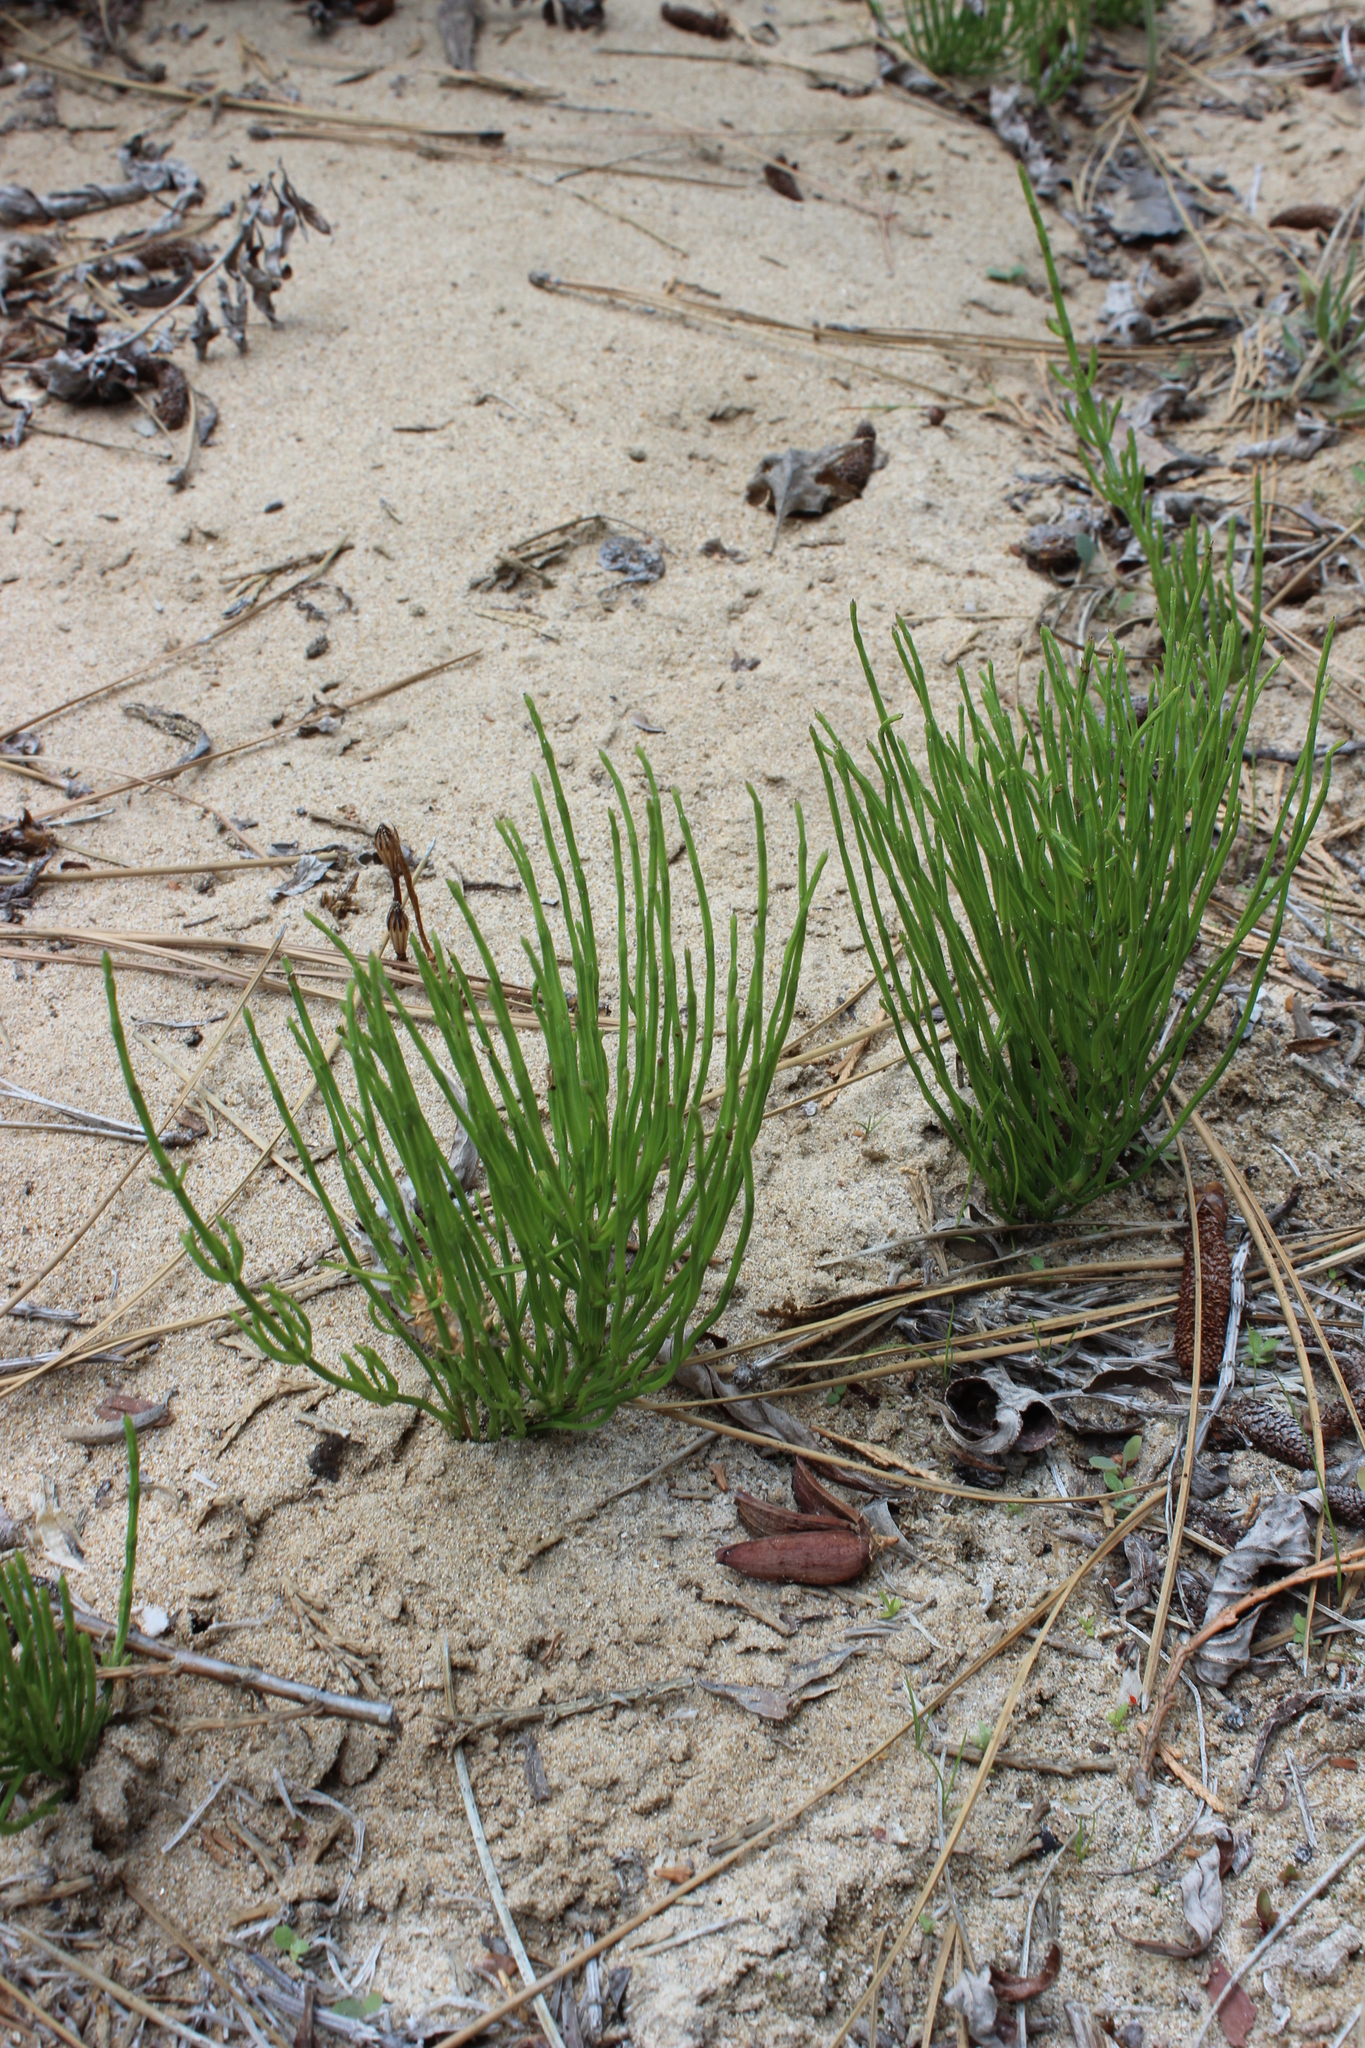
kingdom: Plantae
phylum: Tracheophyta
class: Polypodiopsida
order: Equisetales
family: Equisetaceae
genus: Equisetum
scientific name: Equisetum arvense
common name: Field horsetail
